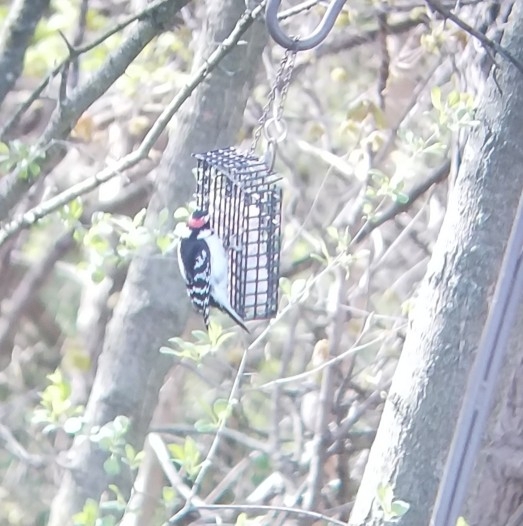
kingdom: Animalia
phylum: Chordata
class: Aves
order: Piciformes
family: Picidae
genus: Dryobates
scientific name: Dryobates pubescens
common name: Downy woodpecker
